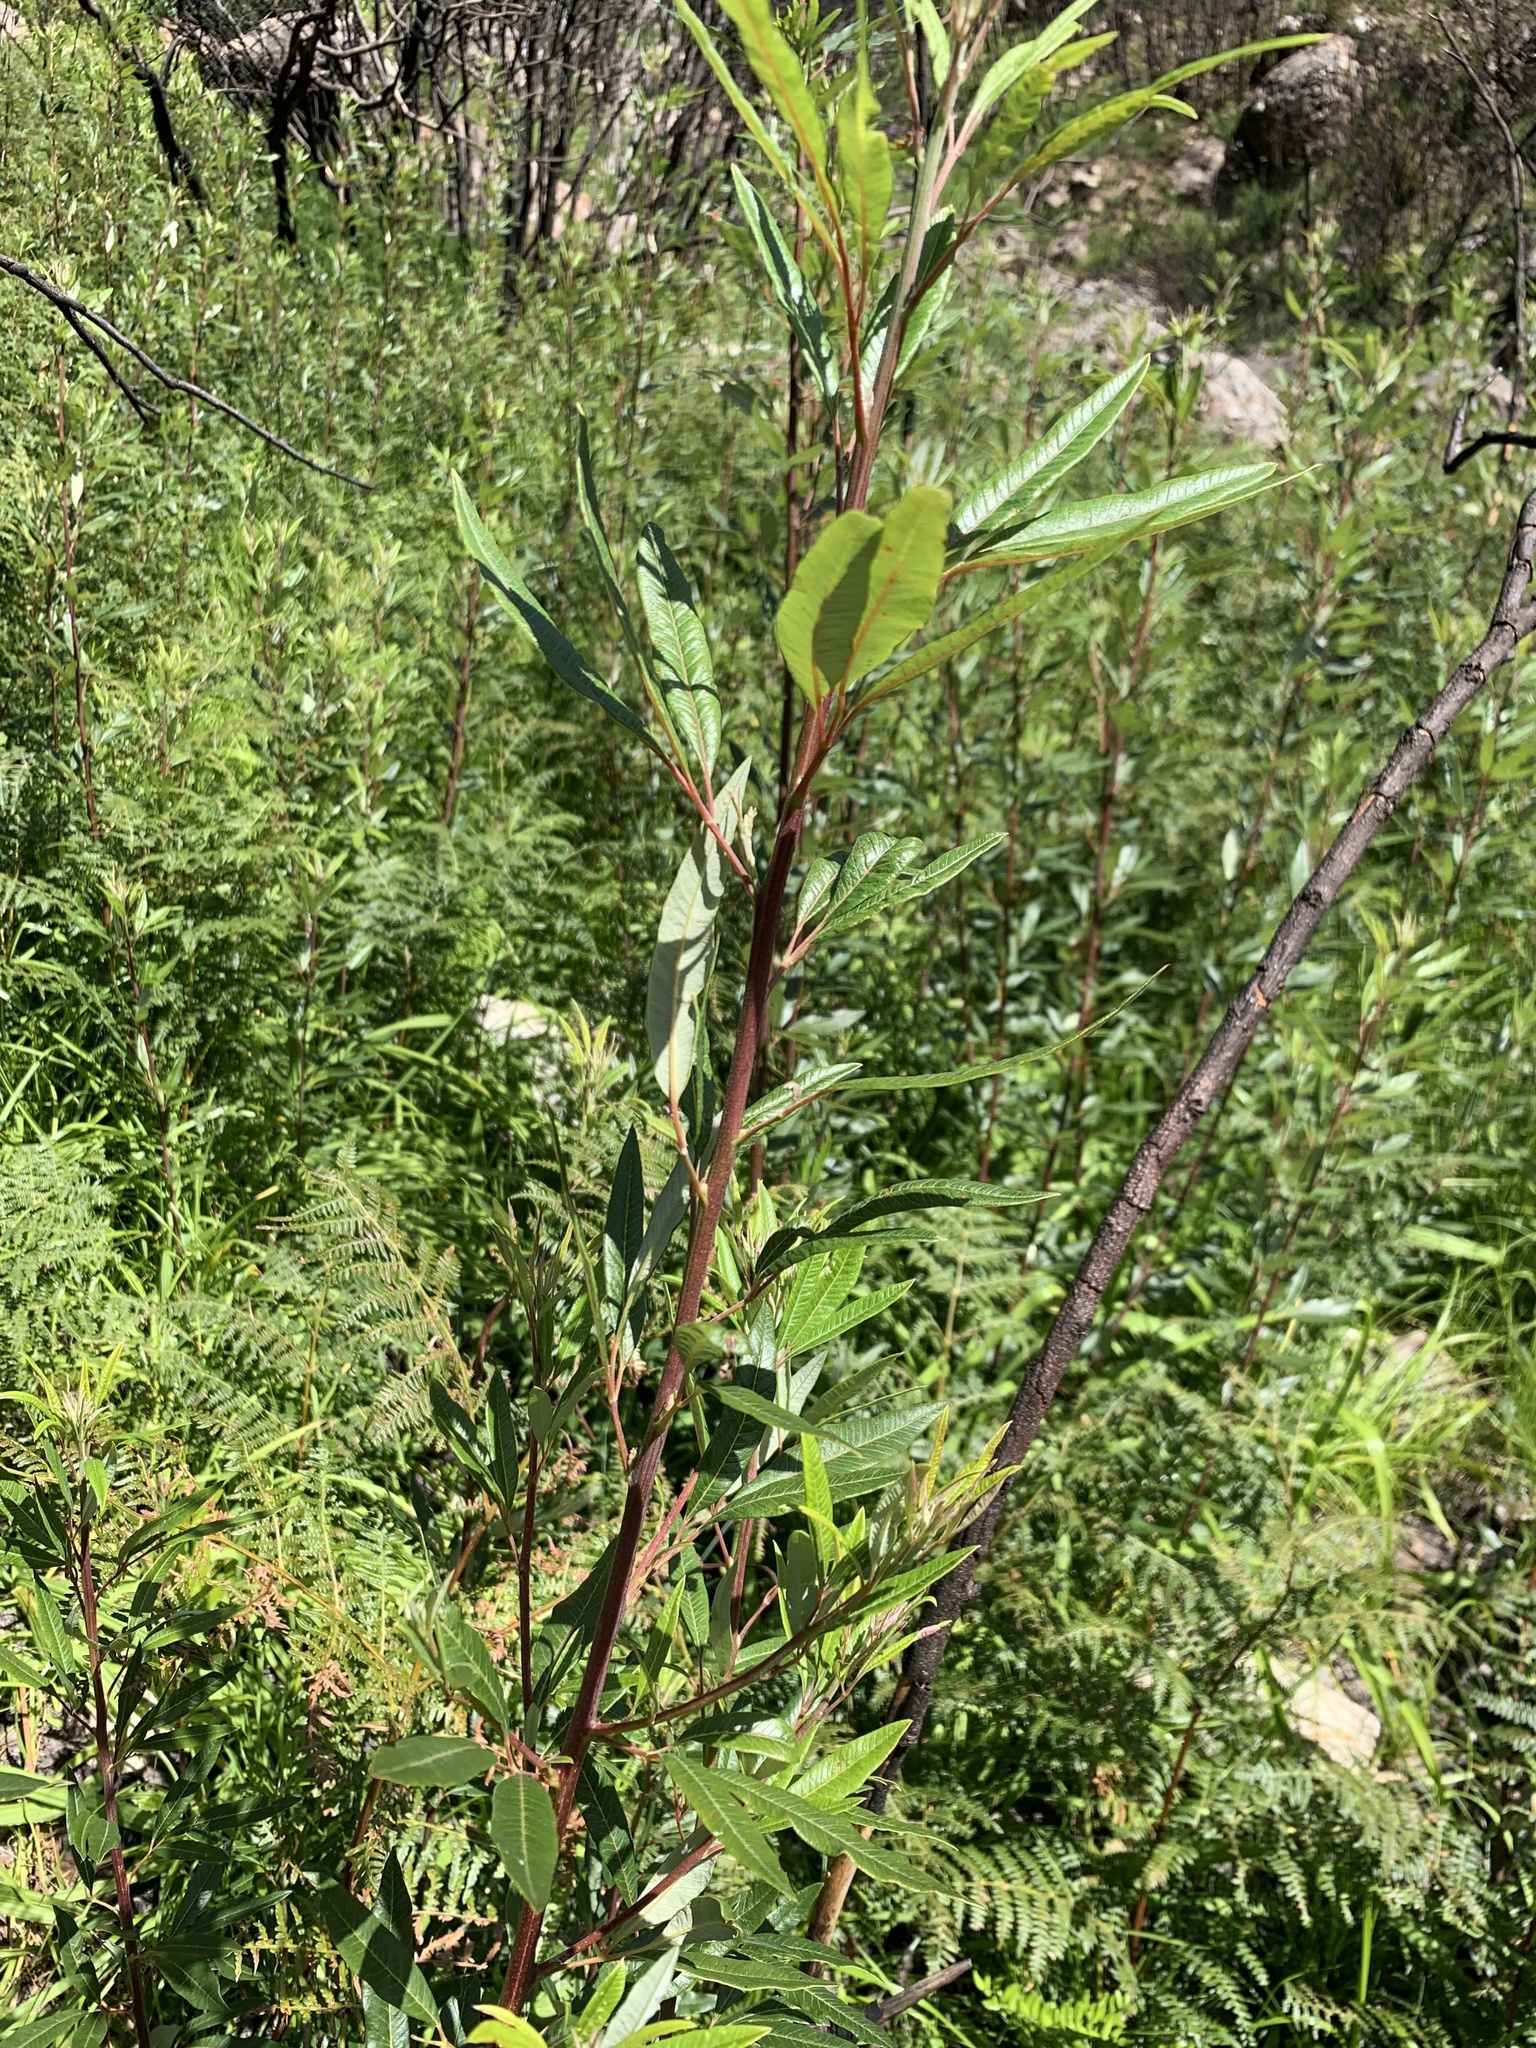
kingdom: Plantae
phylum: Tracheophyta
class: Magnoliopsida
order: Sapindales
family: Anacardiaceae
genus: Searsia
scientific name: Searsia angustifolia
